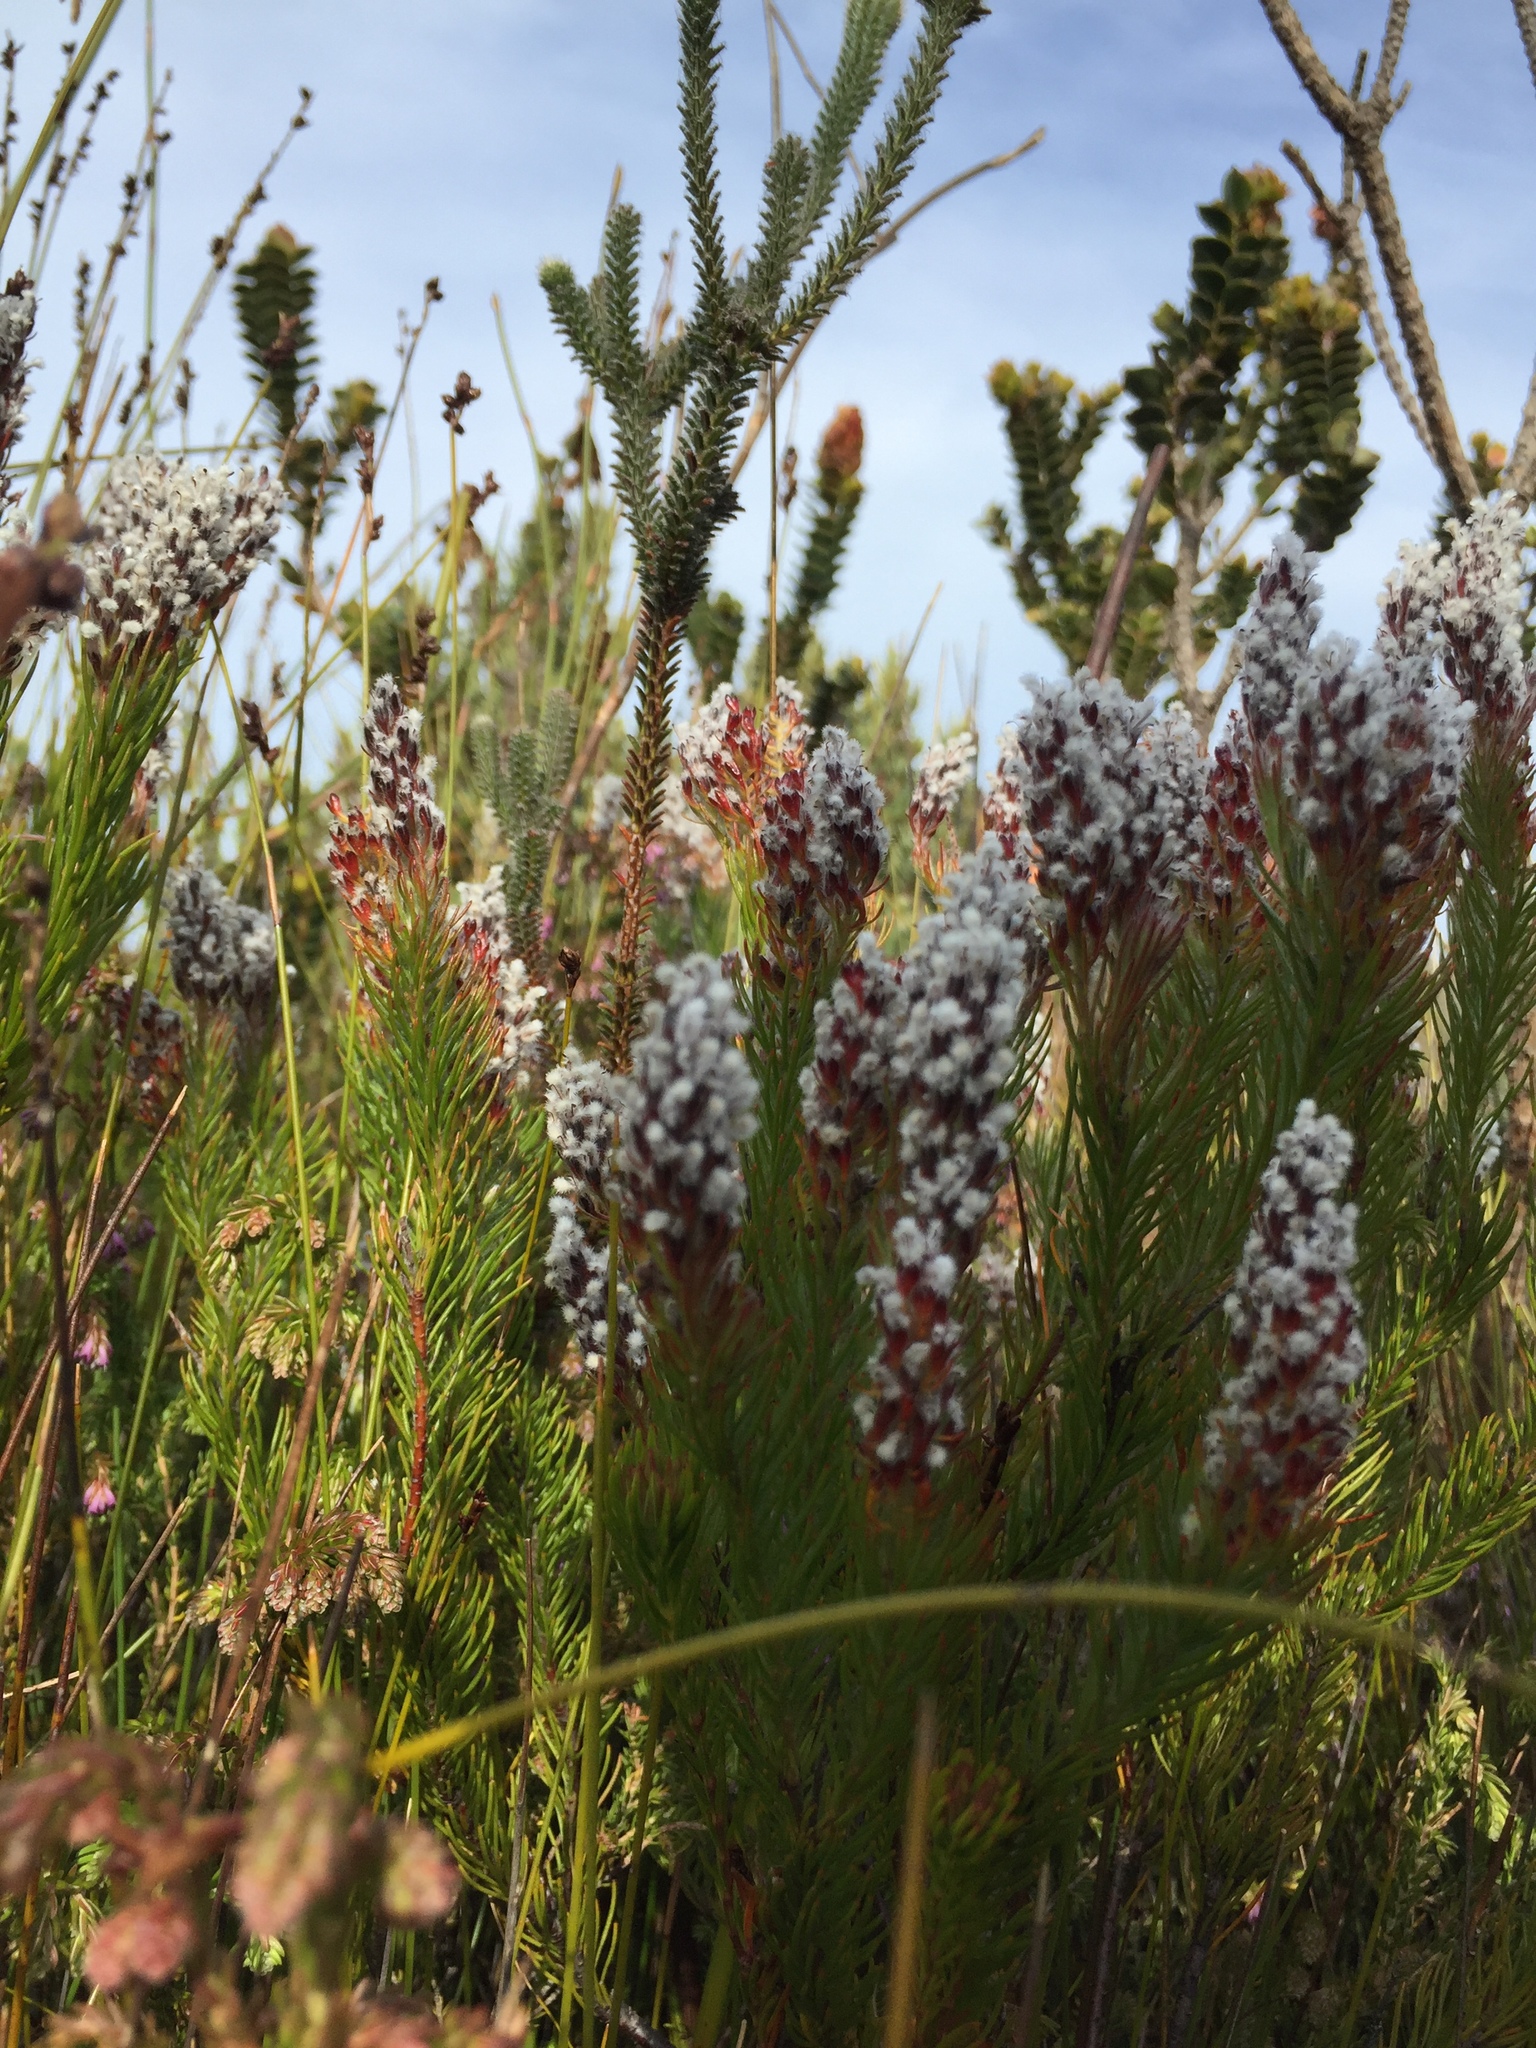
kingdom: Plantae
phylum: Tracheophyta
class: Magnoliopsida
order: Proteales
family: Proteaceae
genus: Spatalla
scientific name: Spatalla mollis
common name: Woolly spoon
